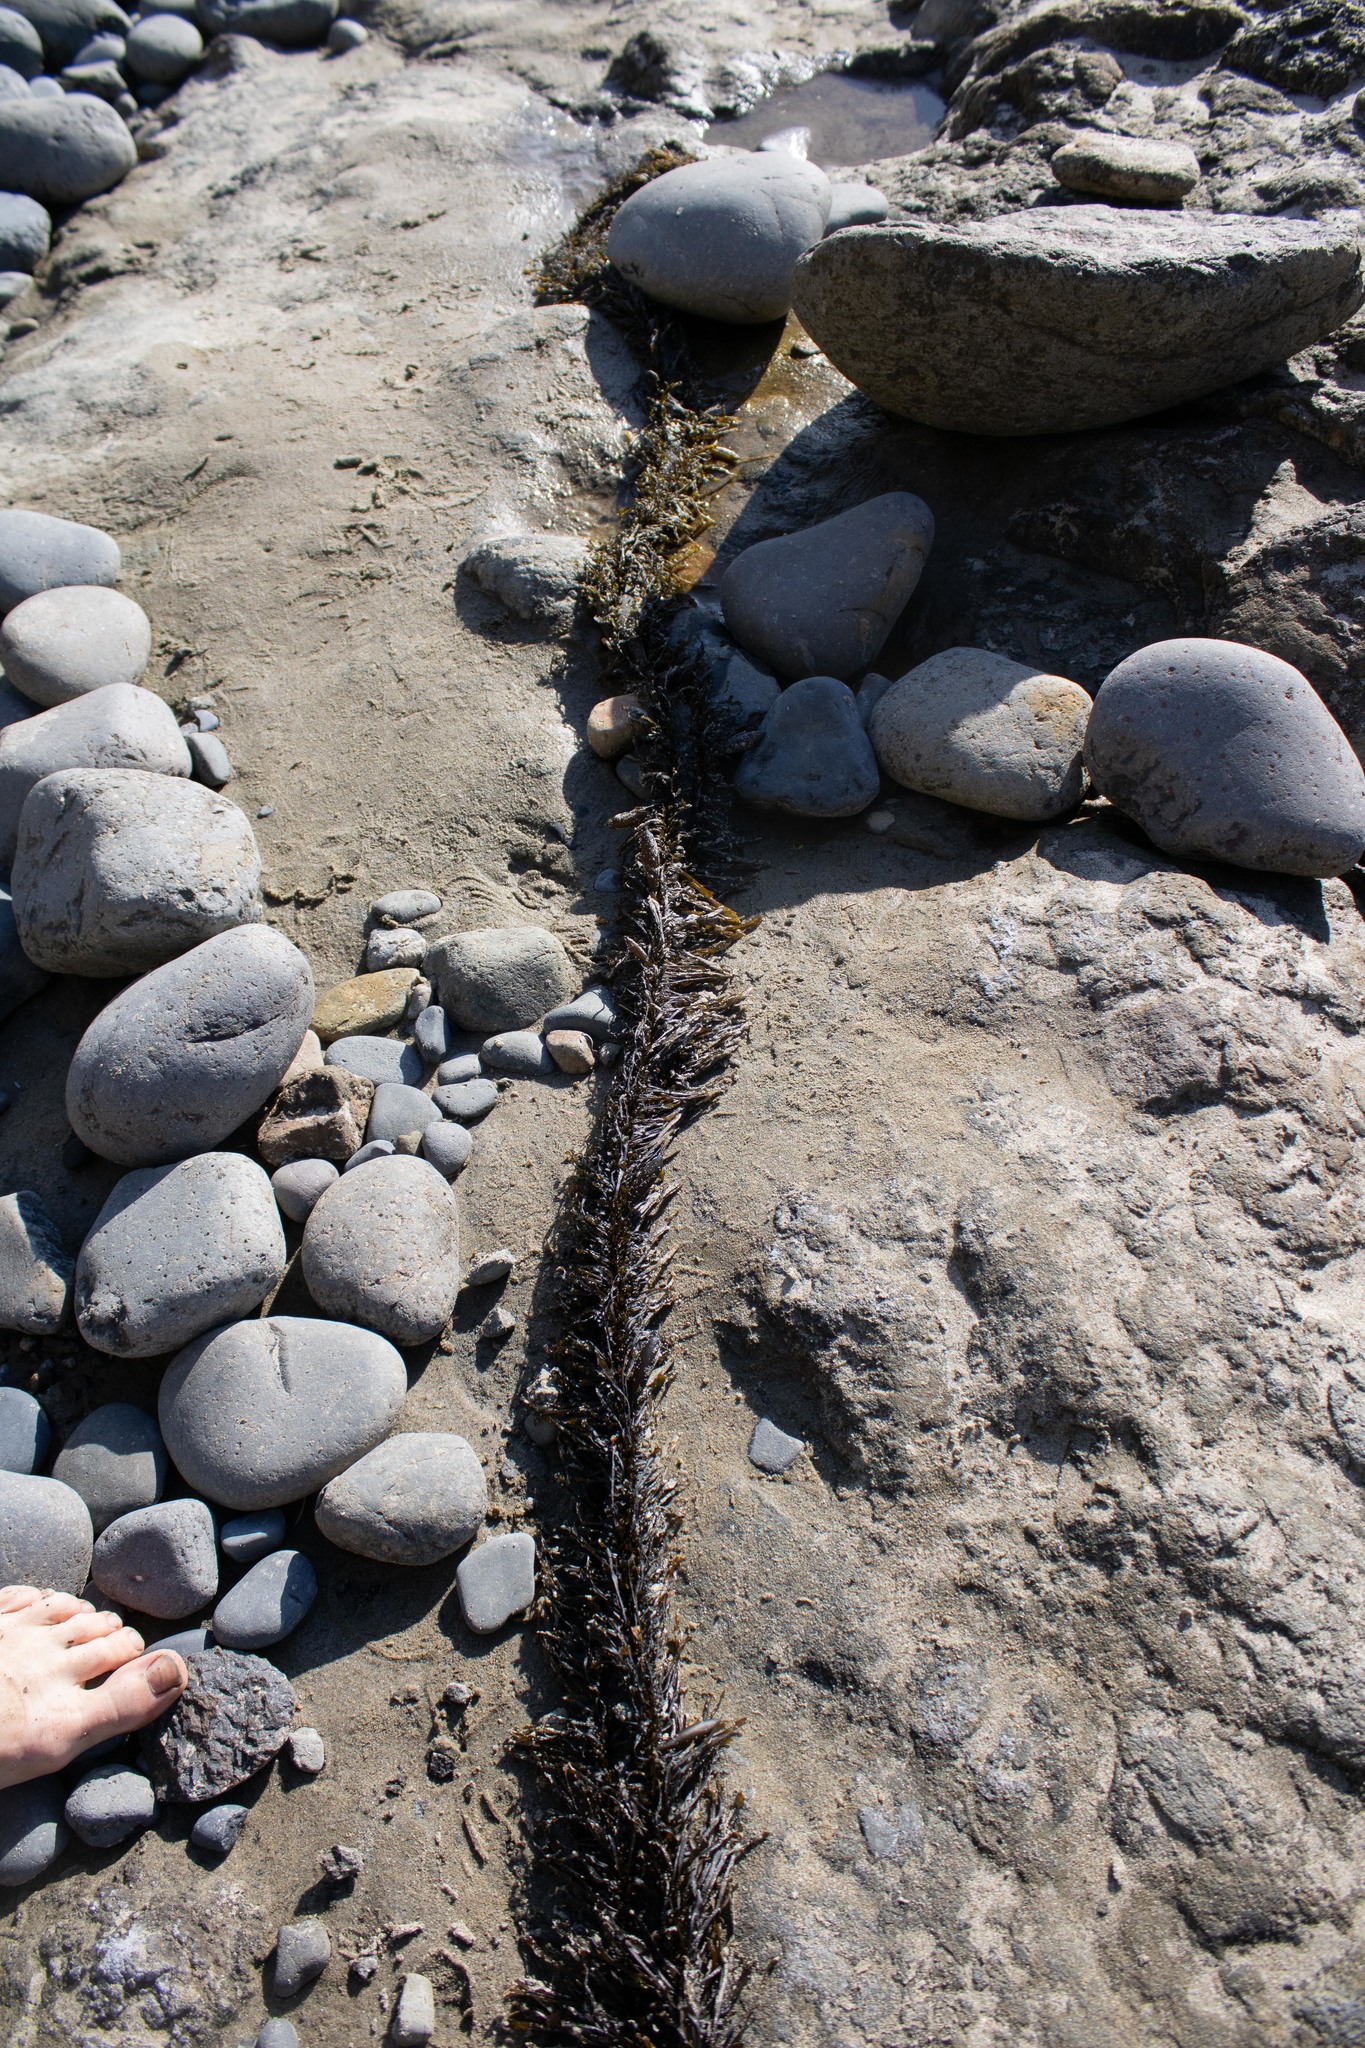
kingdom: Chromista
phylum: Ochrophyta
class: Phaeophyceae
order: Laminariales
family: Lessoniaceae
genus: Egregia
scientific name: Egregia menziesii
